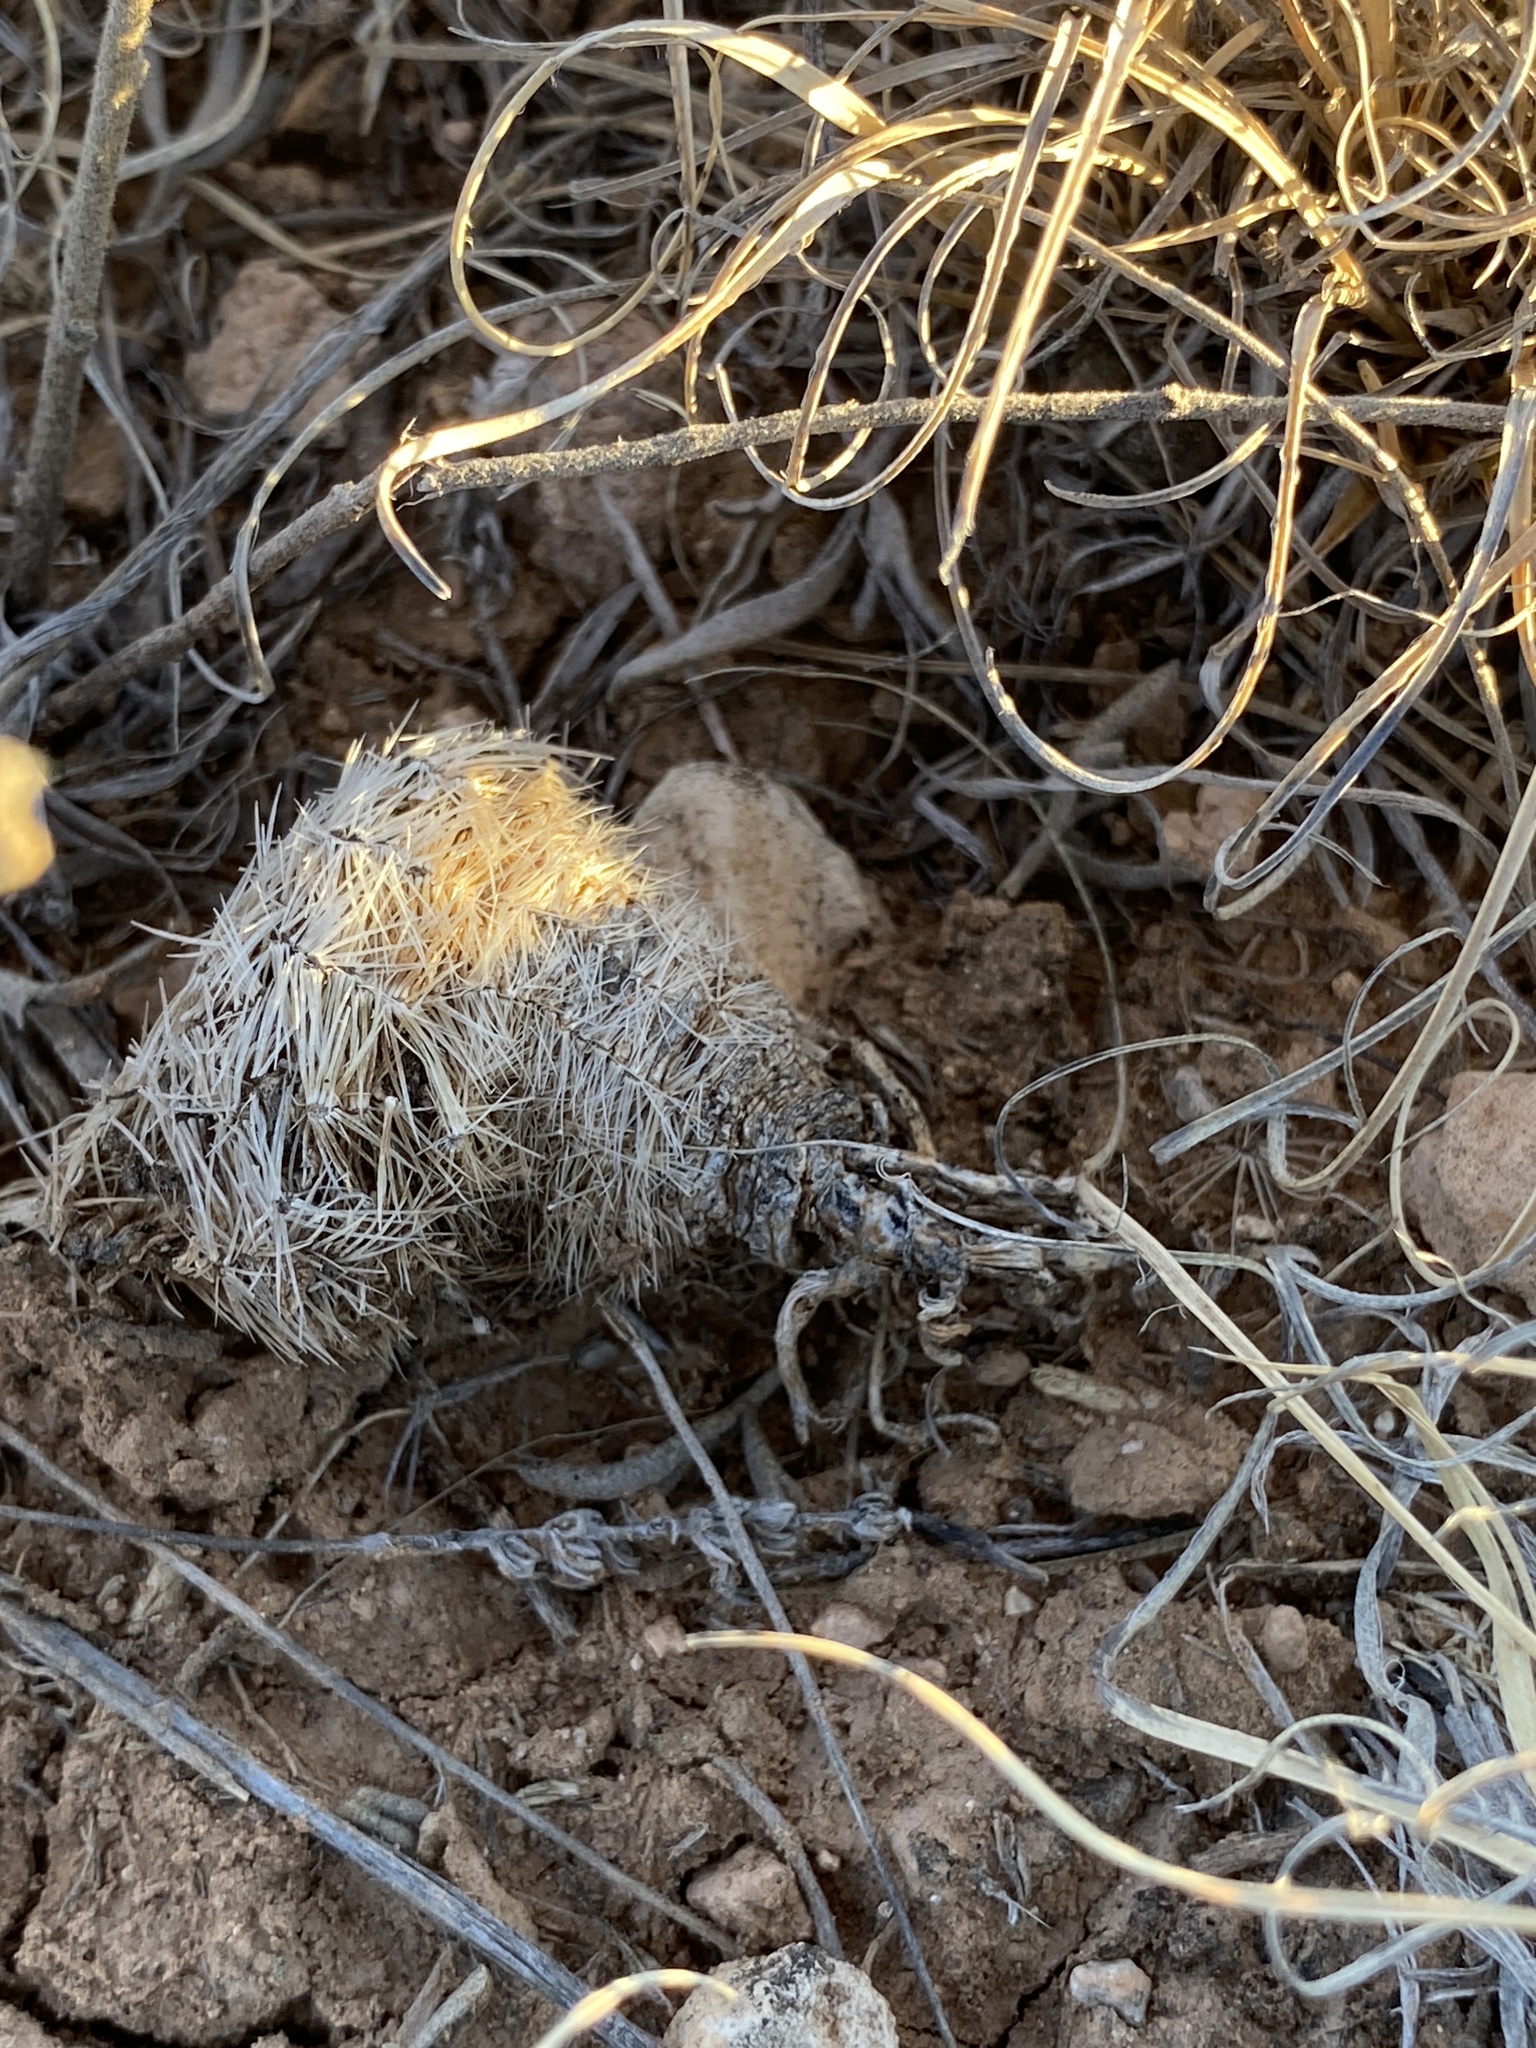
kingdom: Plantae
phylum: Tracheophyta
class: Magnoliopsida
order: Caryophyllales
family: Cactaceae
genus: Echinocereus
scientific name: Echinocereus reichenbachii
